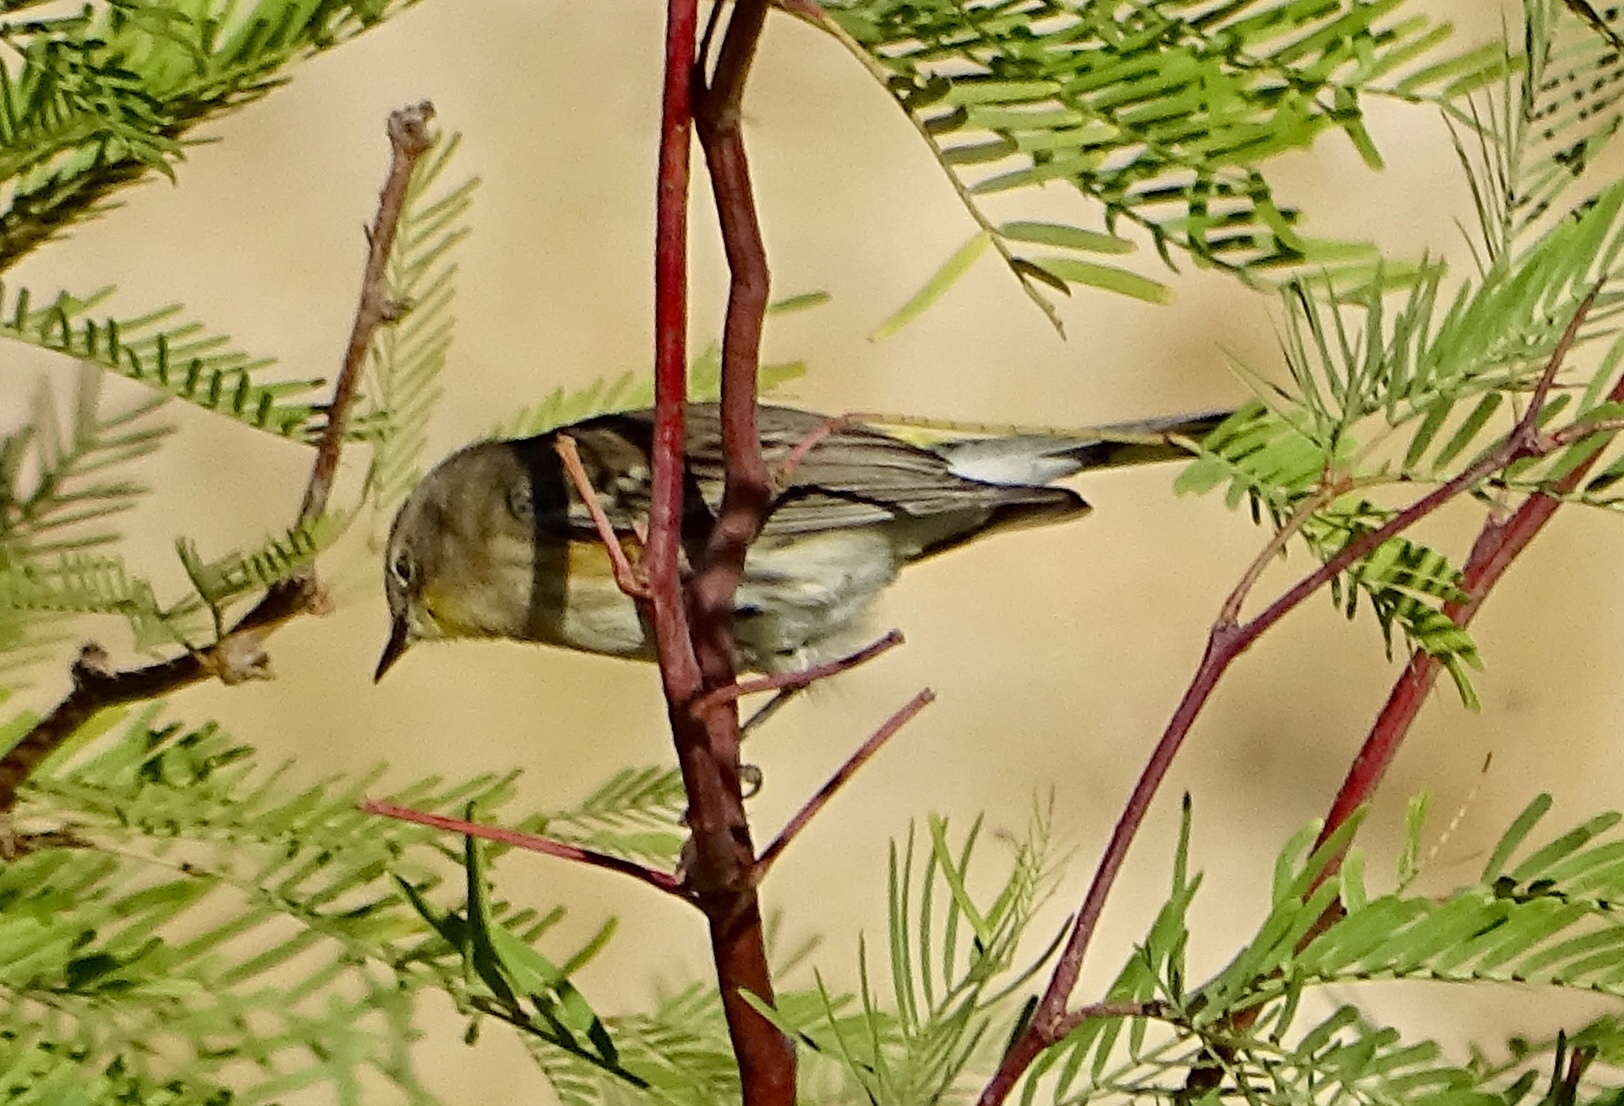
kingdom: Animalia
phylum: Chordata
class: Aves
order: Passeriformes
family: Parulidae
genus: Setophaga
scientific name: Setophaga coronata
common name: Myrtle warbler
